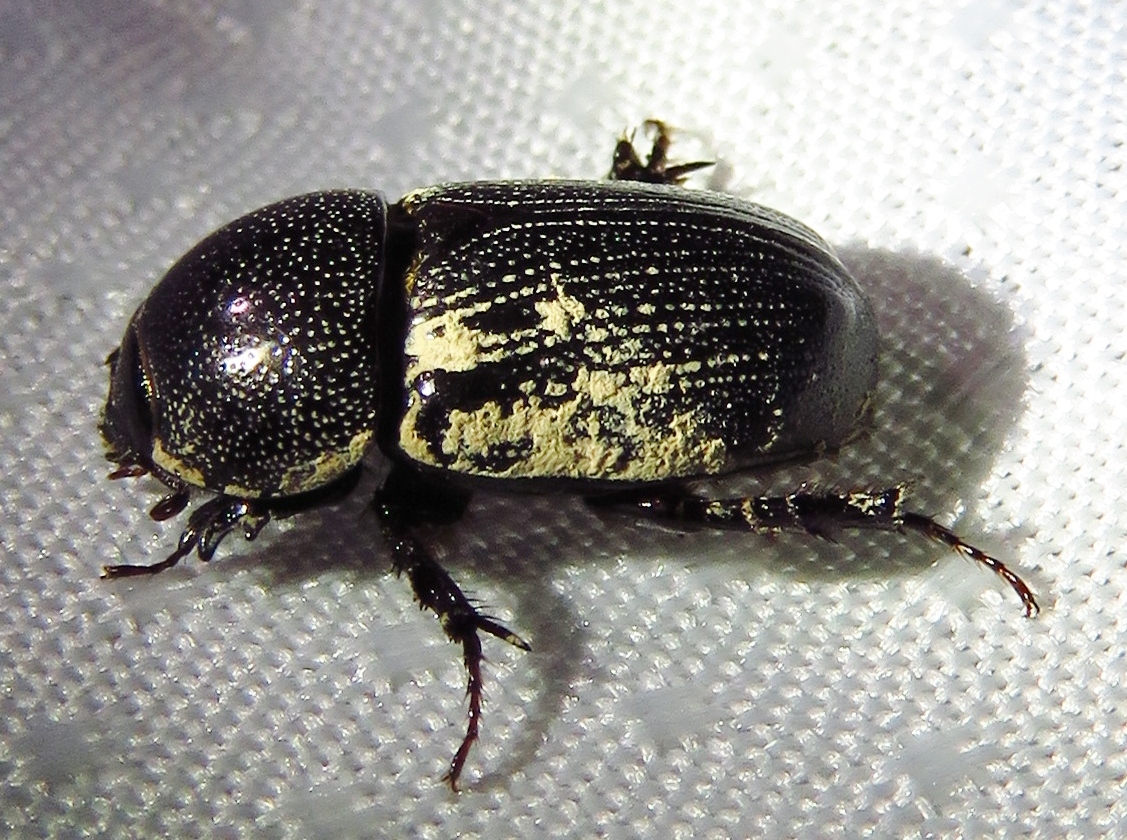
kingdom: Animalia
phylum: Arthropoda
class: Insecta
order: Coleoptera
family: Scarabaeidae
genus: Euetheola
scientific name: Euetheola humilis
